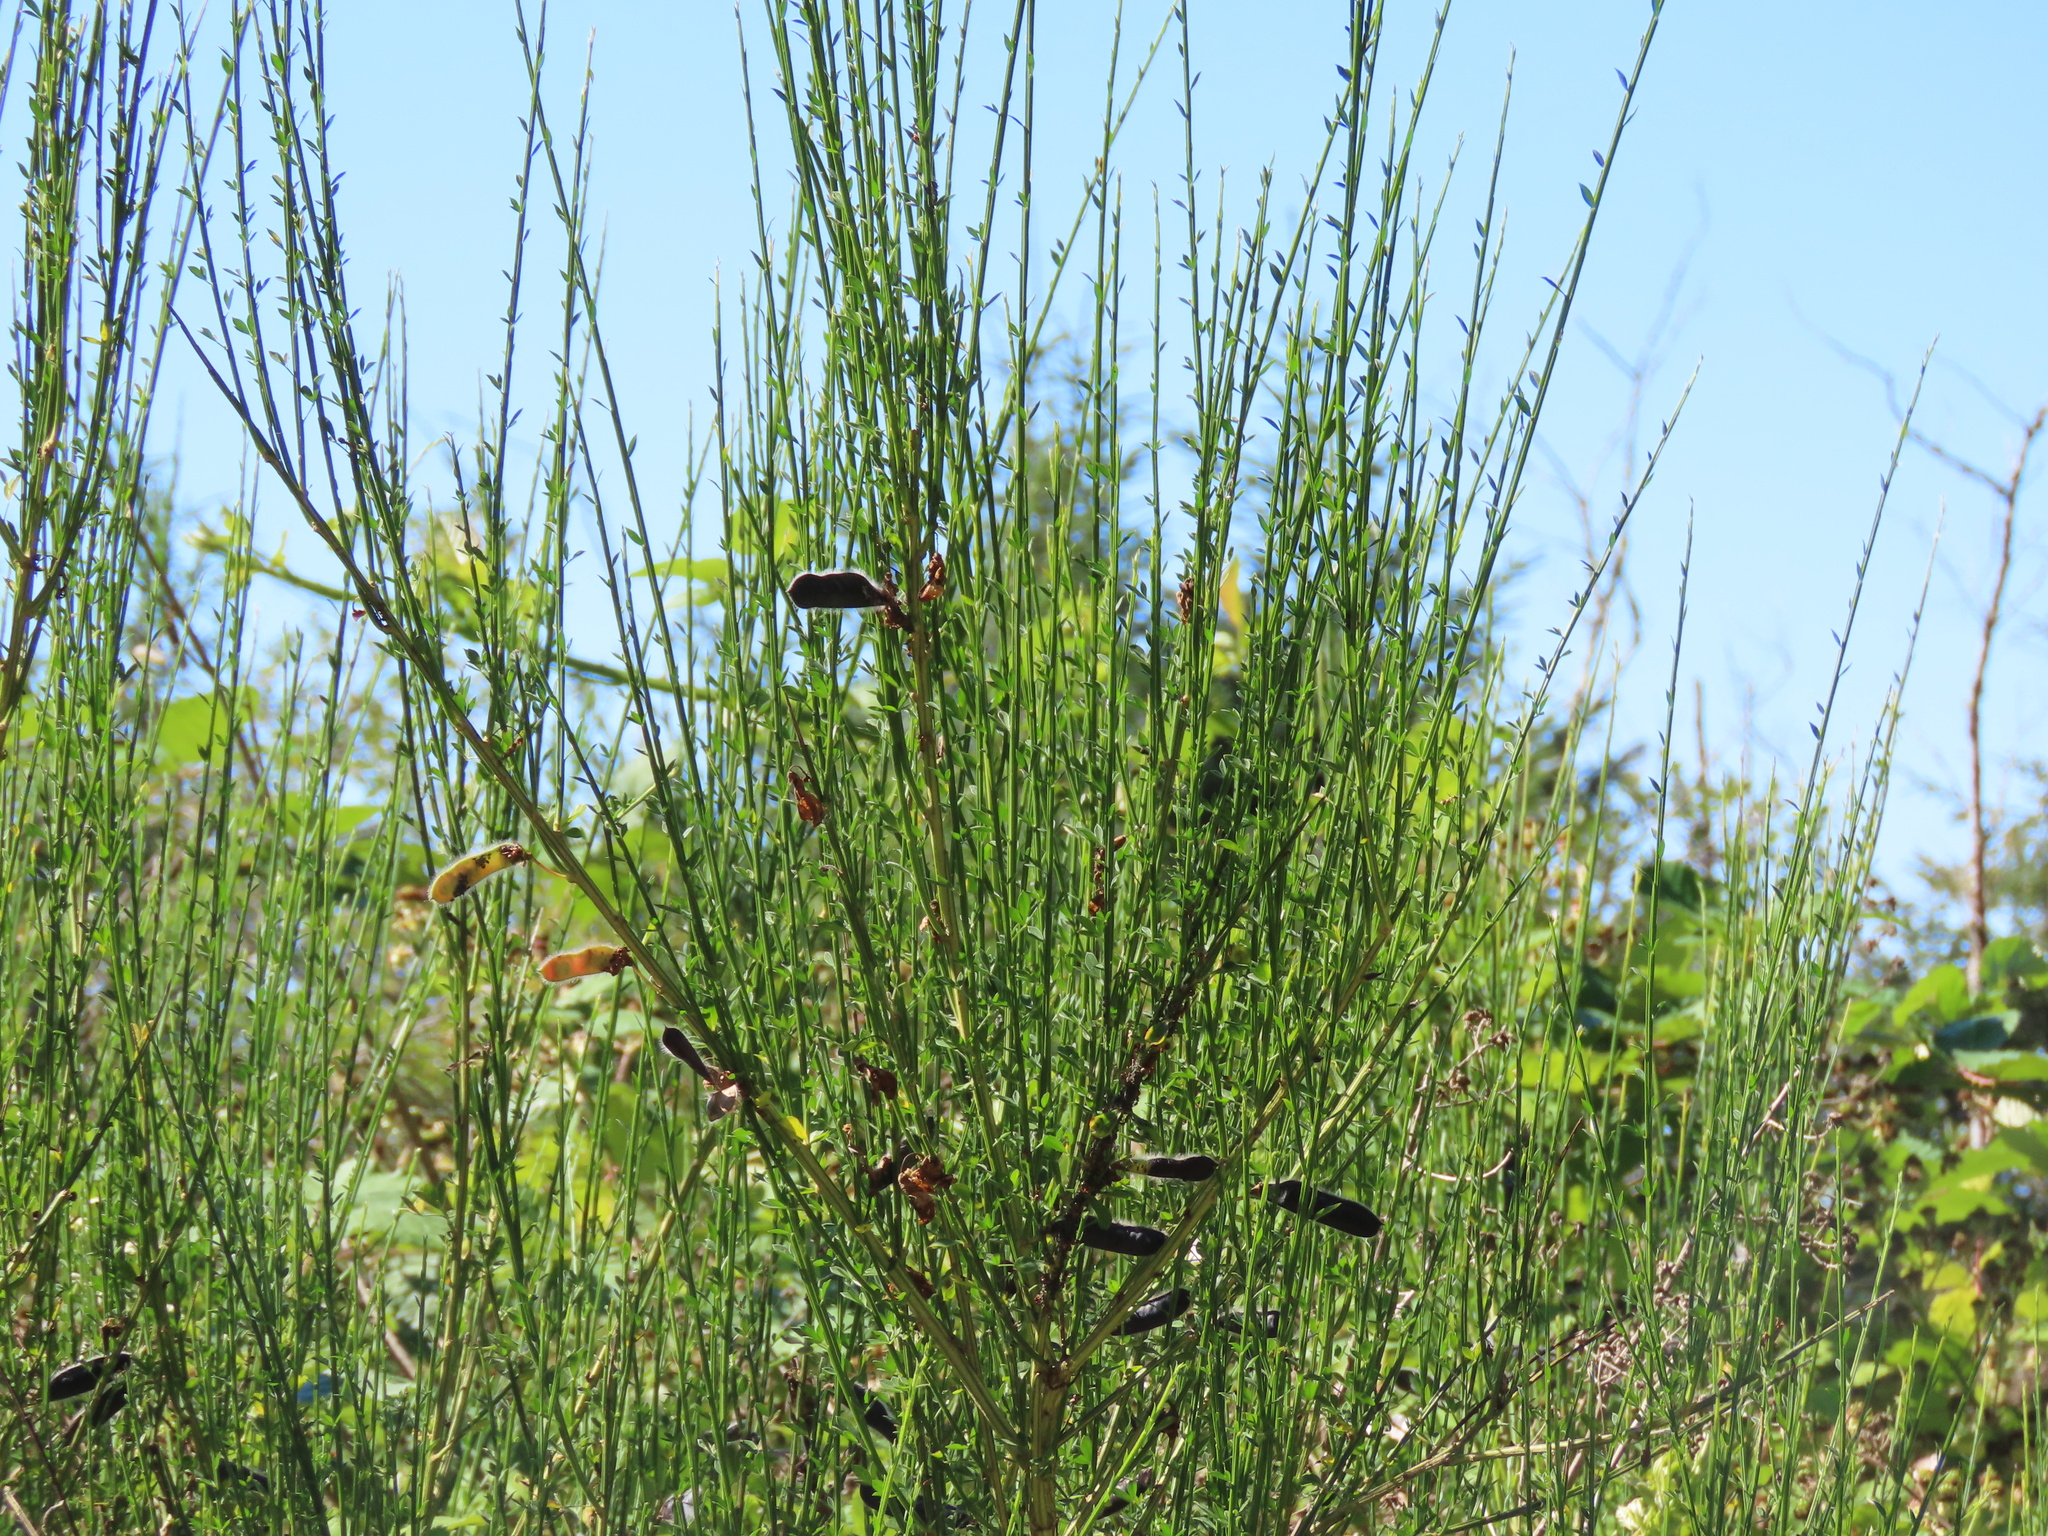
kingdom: Plantae
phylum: Tracheophyta
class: Magnoliopsida
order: Fabales
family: Fabaceae
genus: Cytisus
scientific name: Cytisus scoparius
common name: Scotch broom
